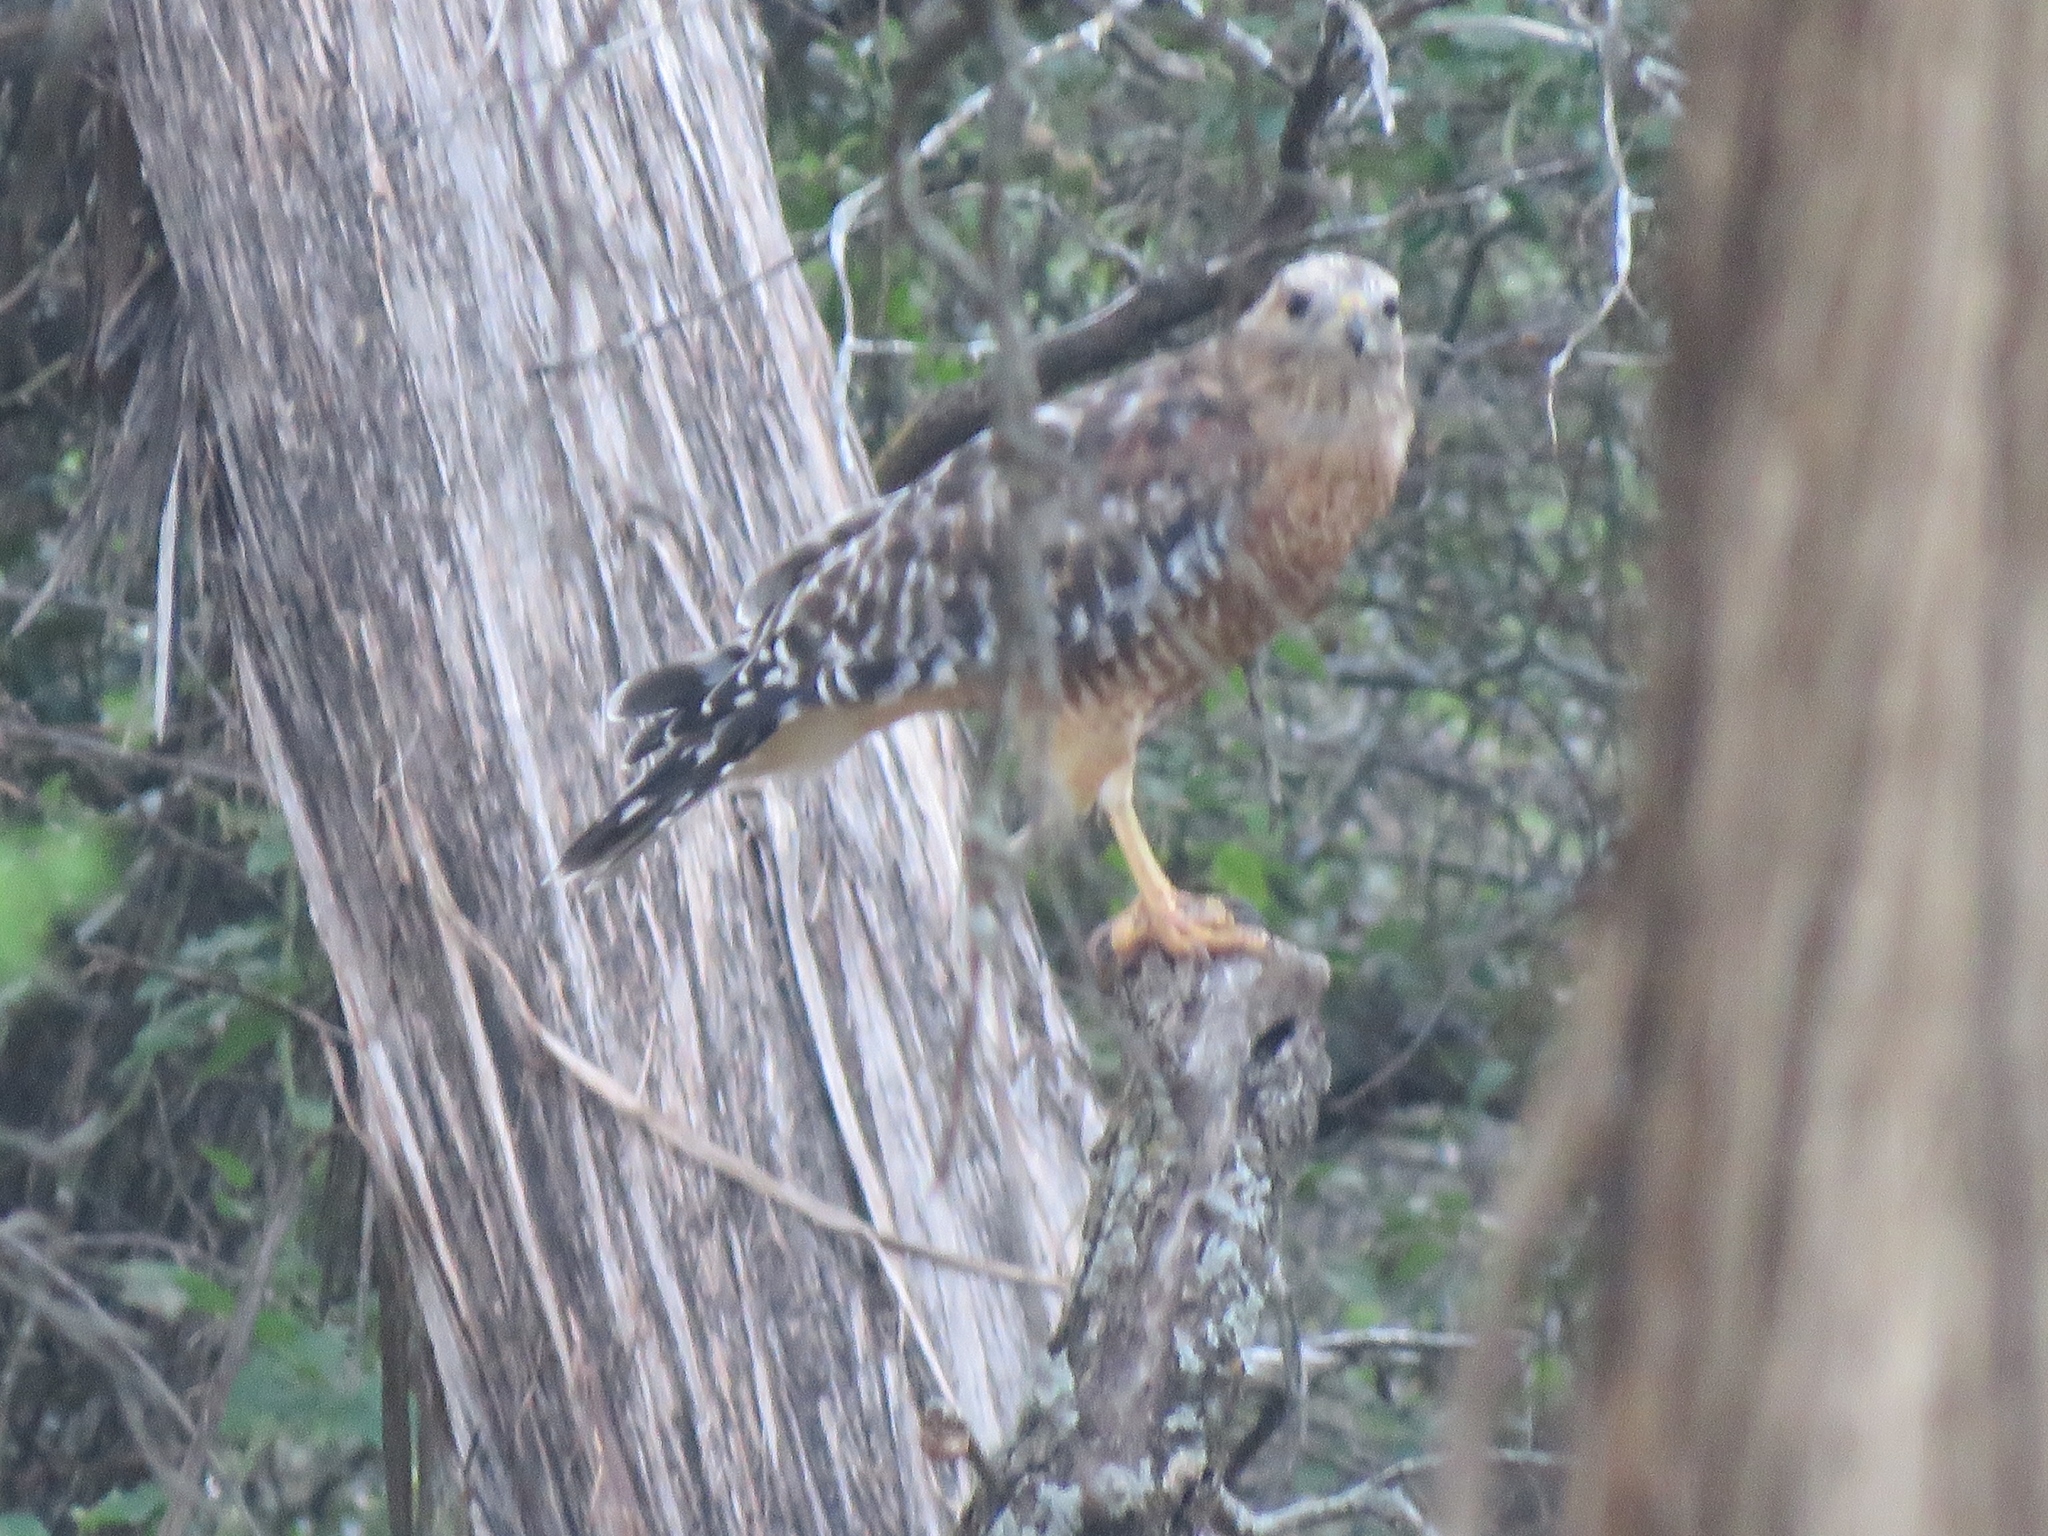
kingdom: Animalia
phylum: Chordata
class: Aves
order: Accipitriformes
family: Accipitridae
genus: Buteo
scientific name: Buteo lineatus
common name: Red-shouldered hawk
